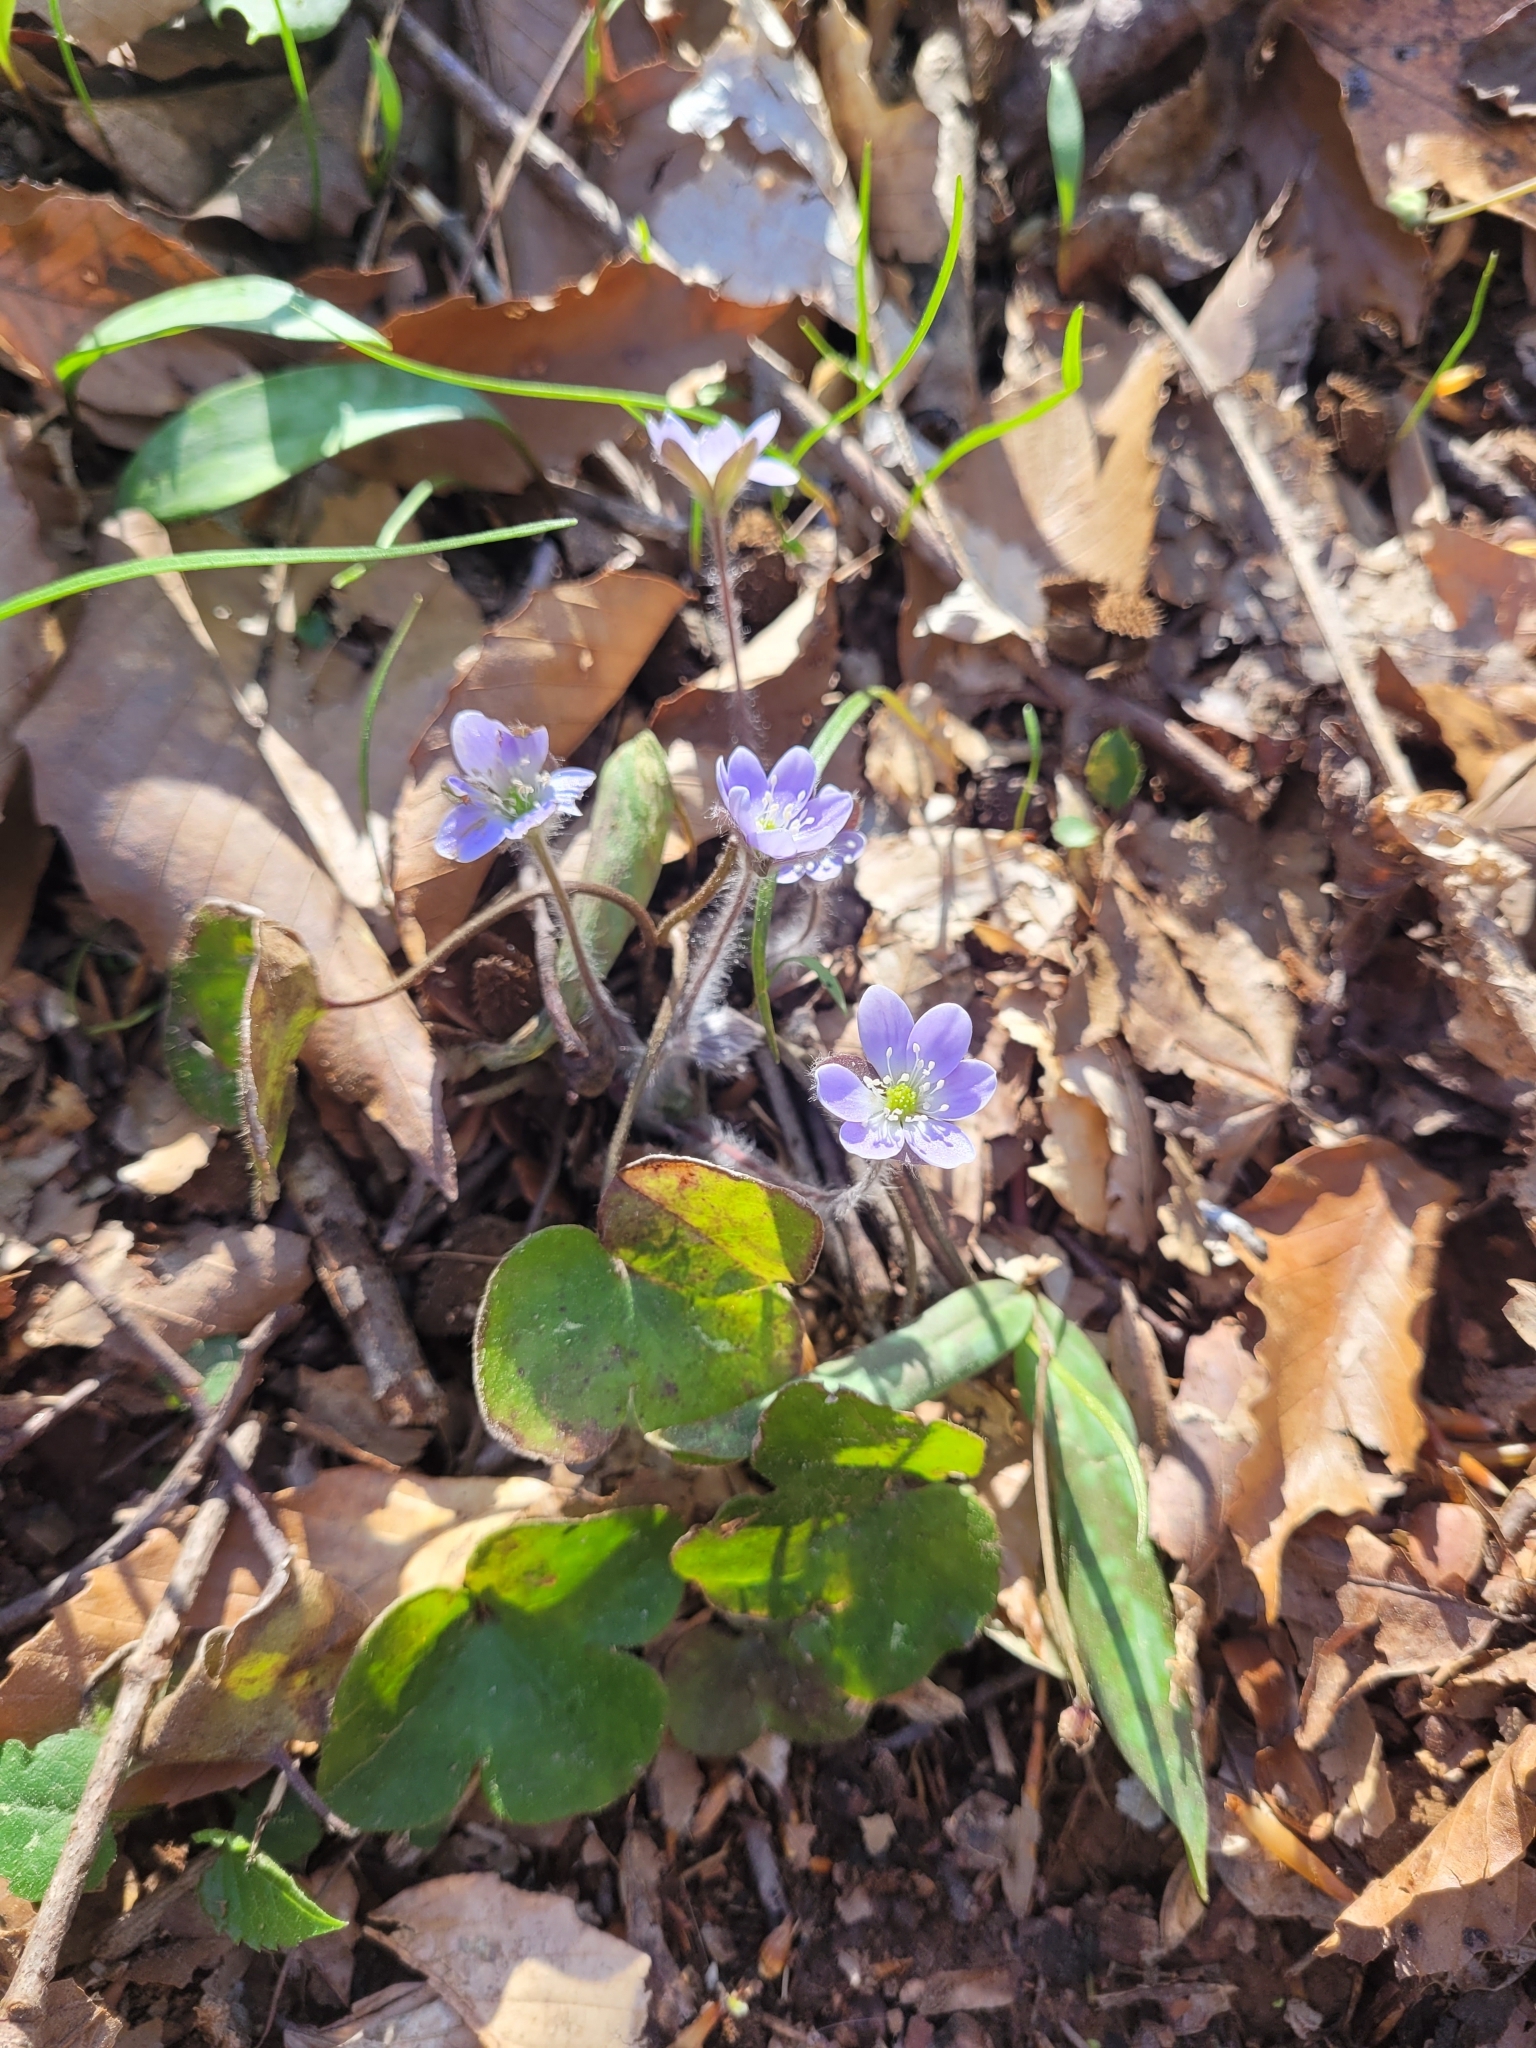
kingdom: Plantae
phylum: Tracheophyta
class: Magnoliopsida
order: Ranunculales
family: Ranunculaceae
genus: Hepatica
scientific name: Hepatica americana
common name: American hepatica
